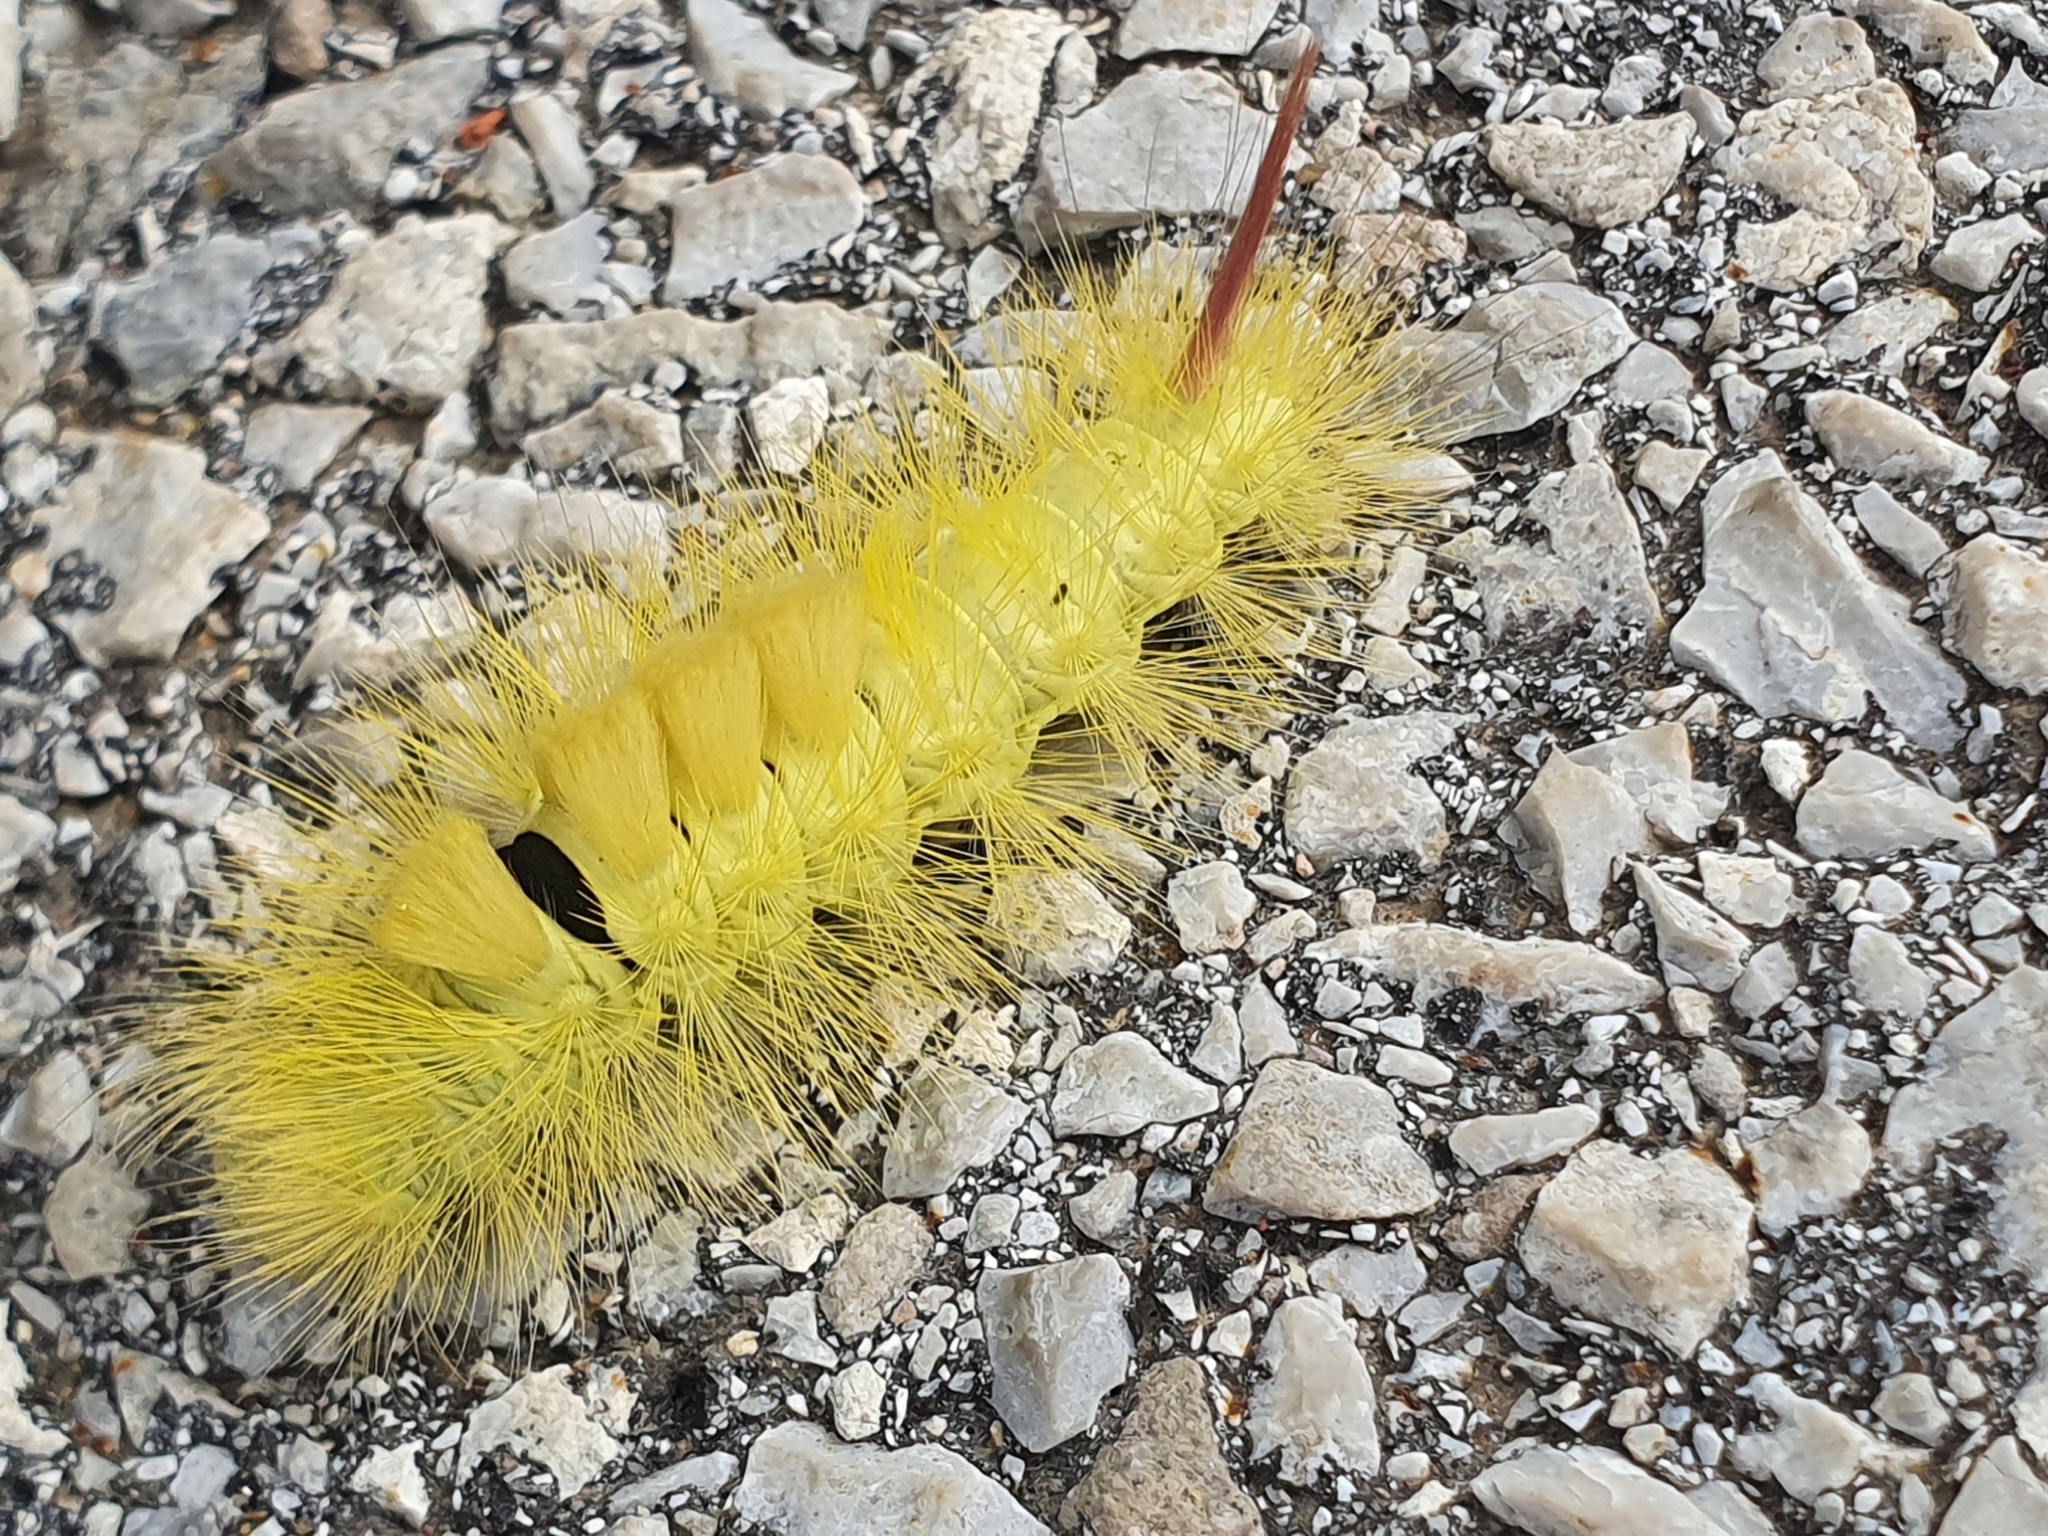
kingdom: Animalia
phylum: Arthropoda
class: Insecta
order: Lepidoptera
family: Erebidae
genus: Calliteara
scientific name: Calliteara pudibunda
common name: Pale tussock
